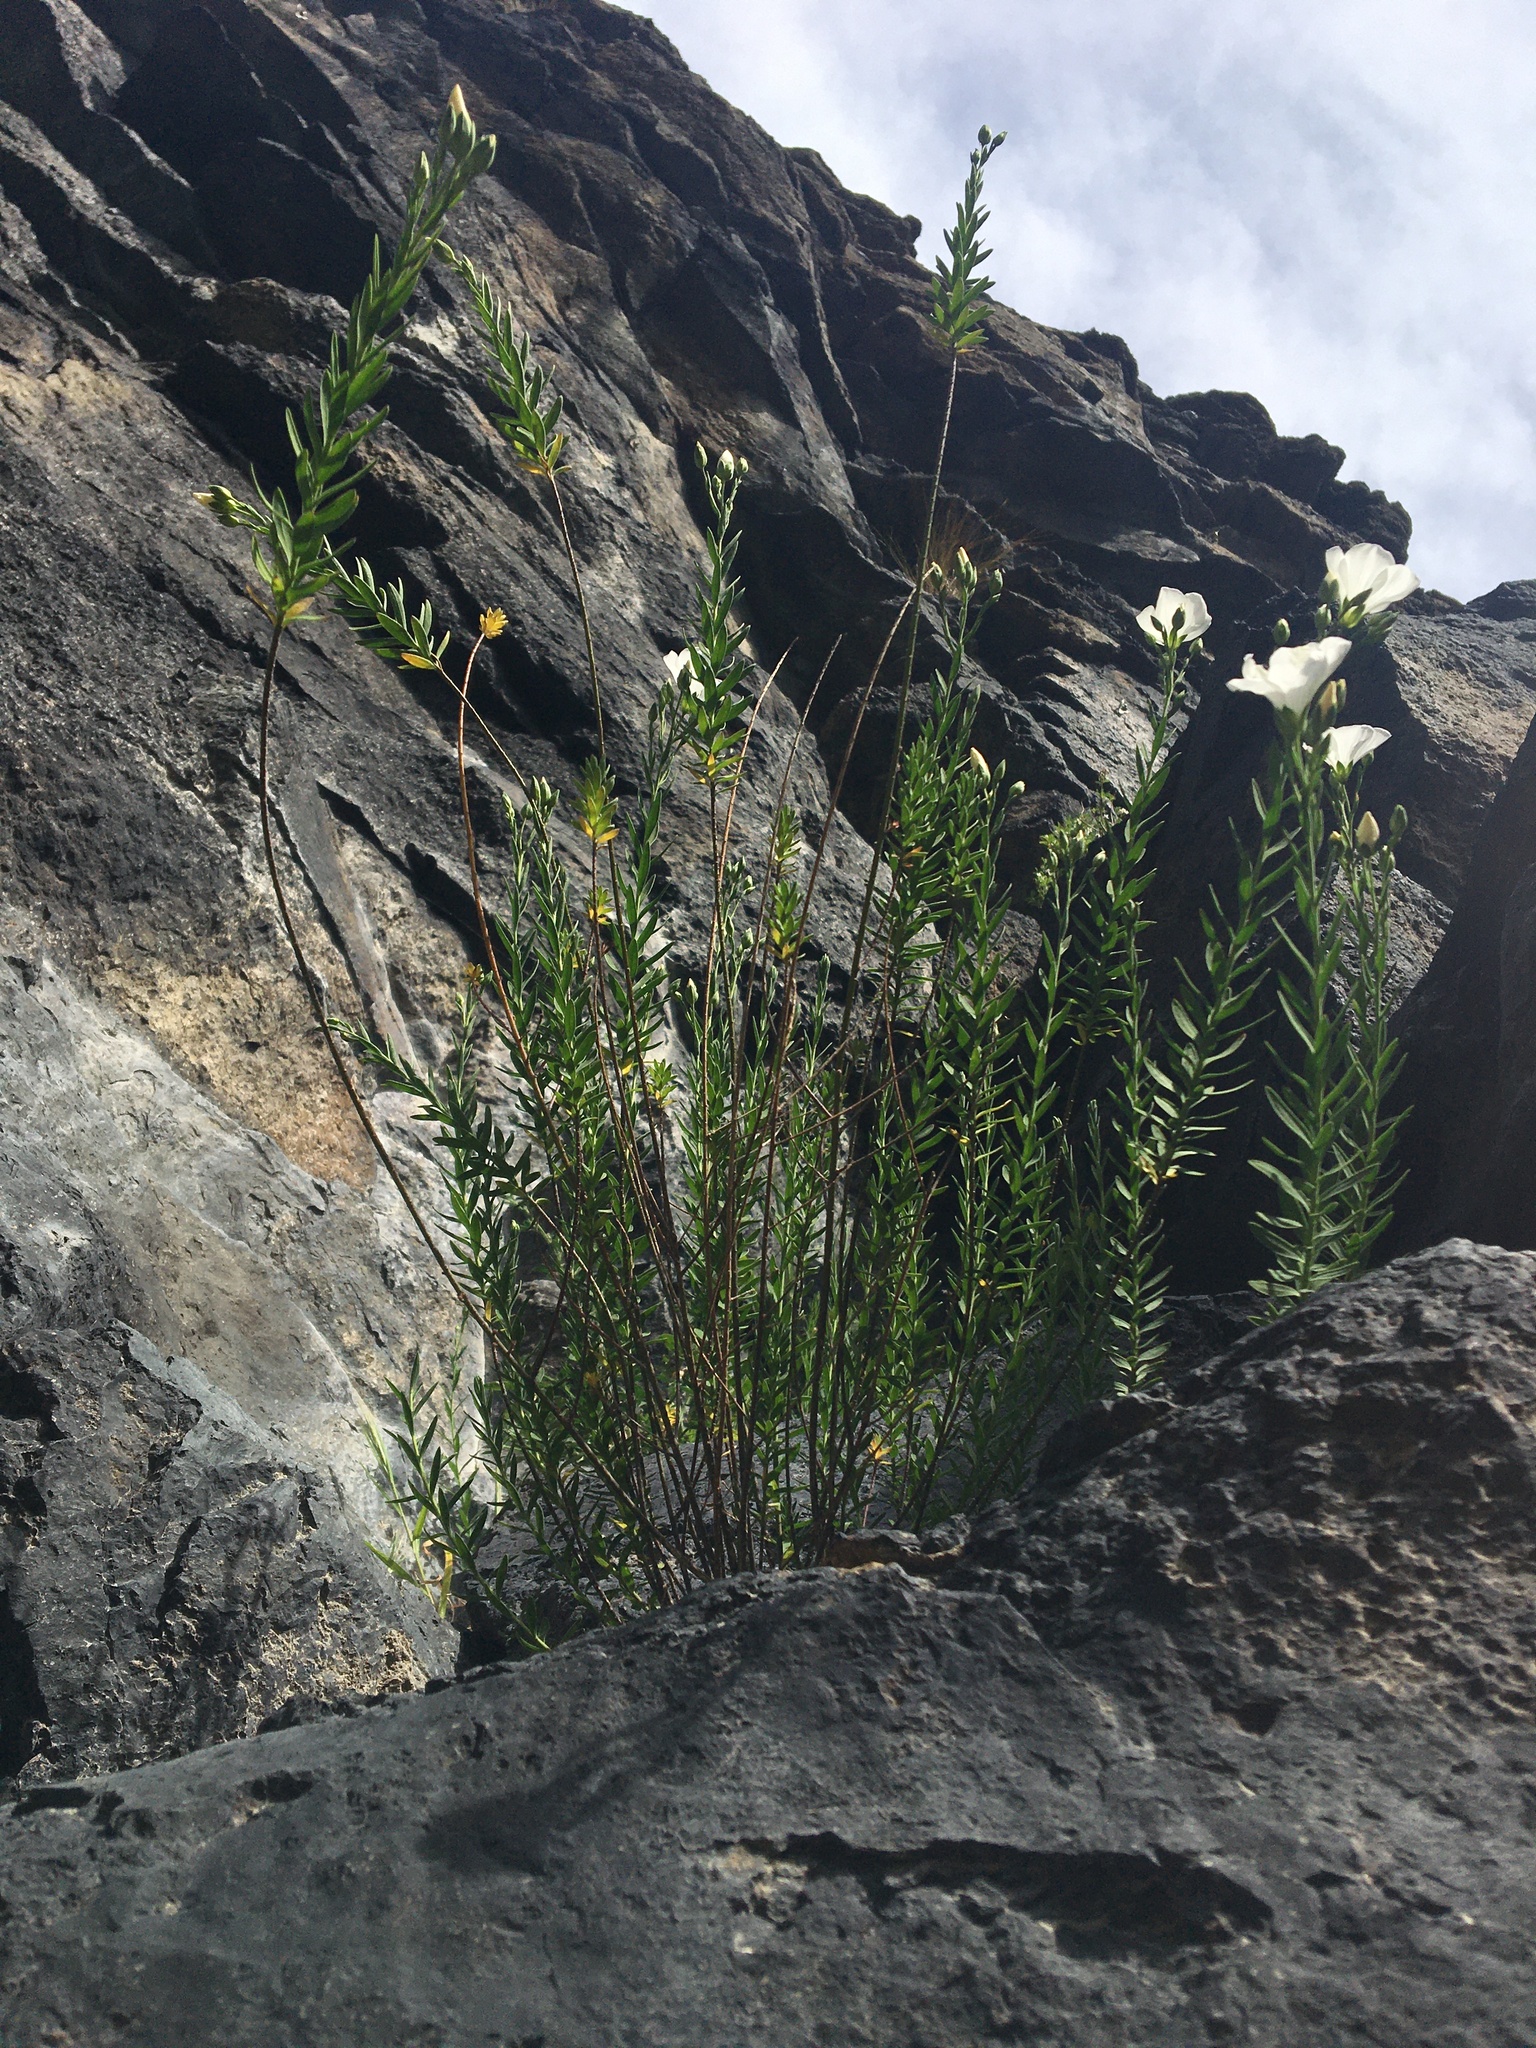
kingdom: Plantae
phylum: Tracheophyta
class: Magnoliopsida
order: Malpighiales
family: Linaceae
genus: Linum
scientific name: Linum monogynum
